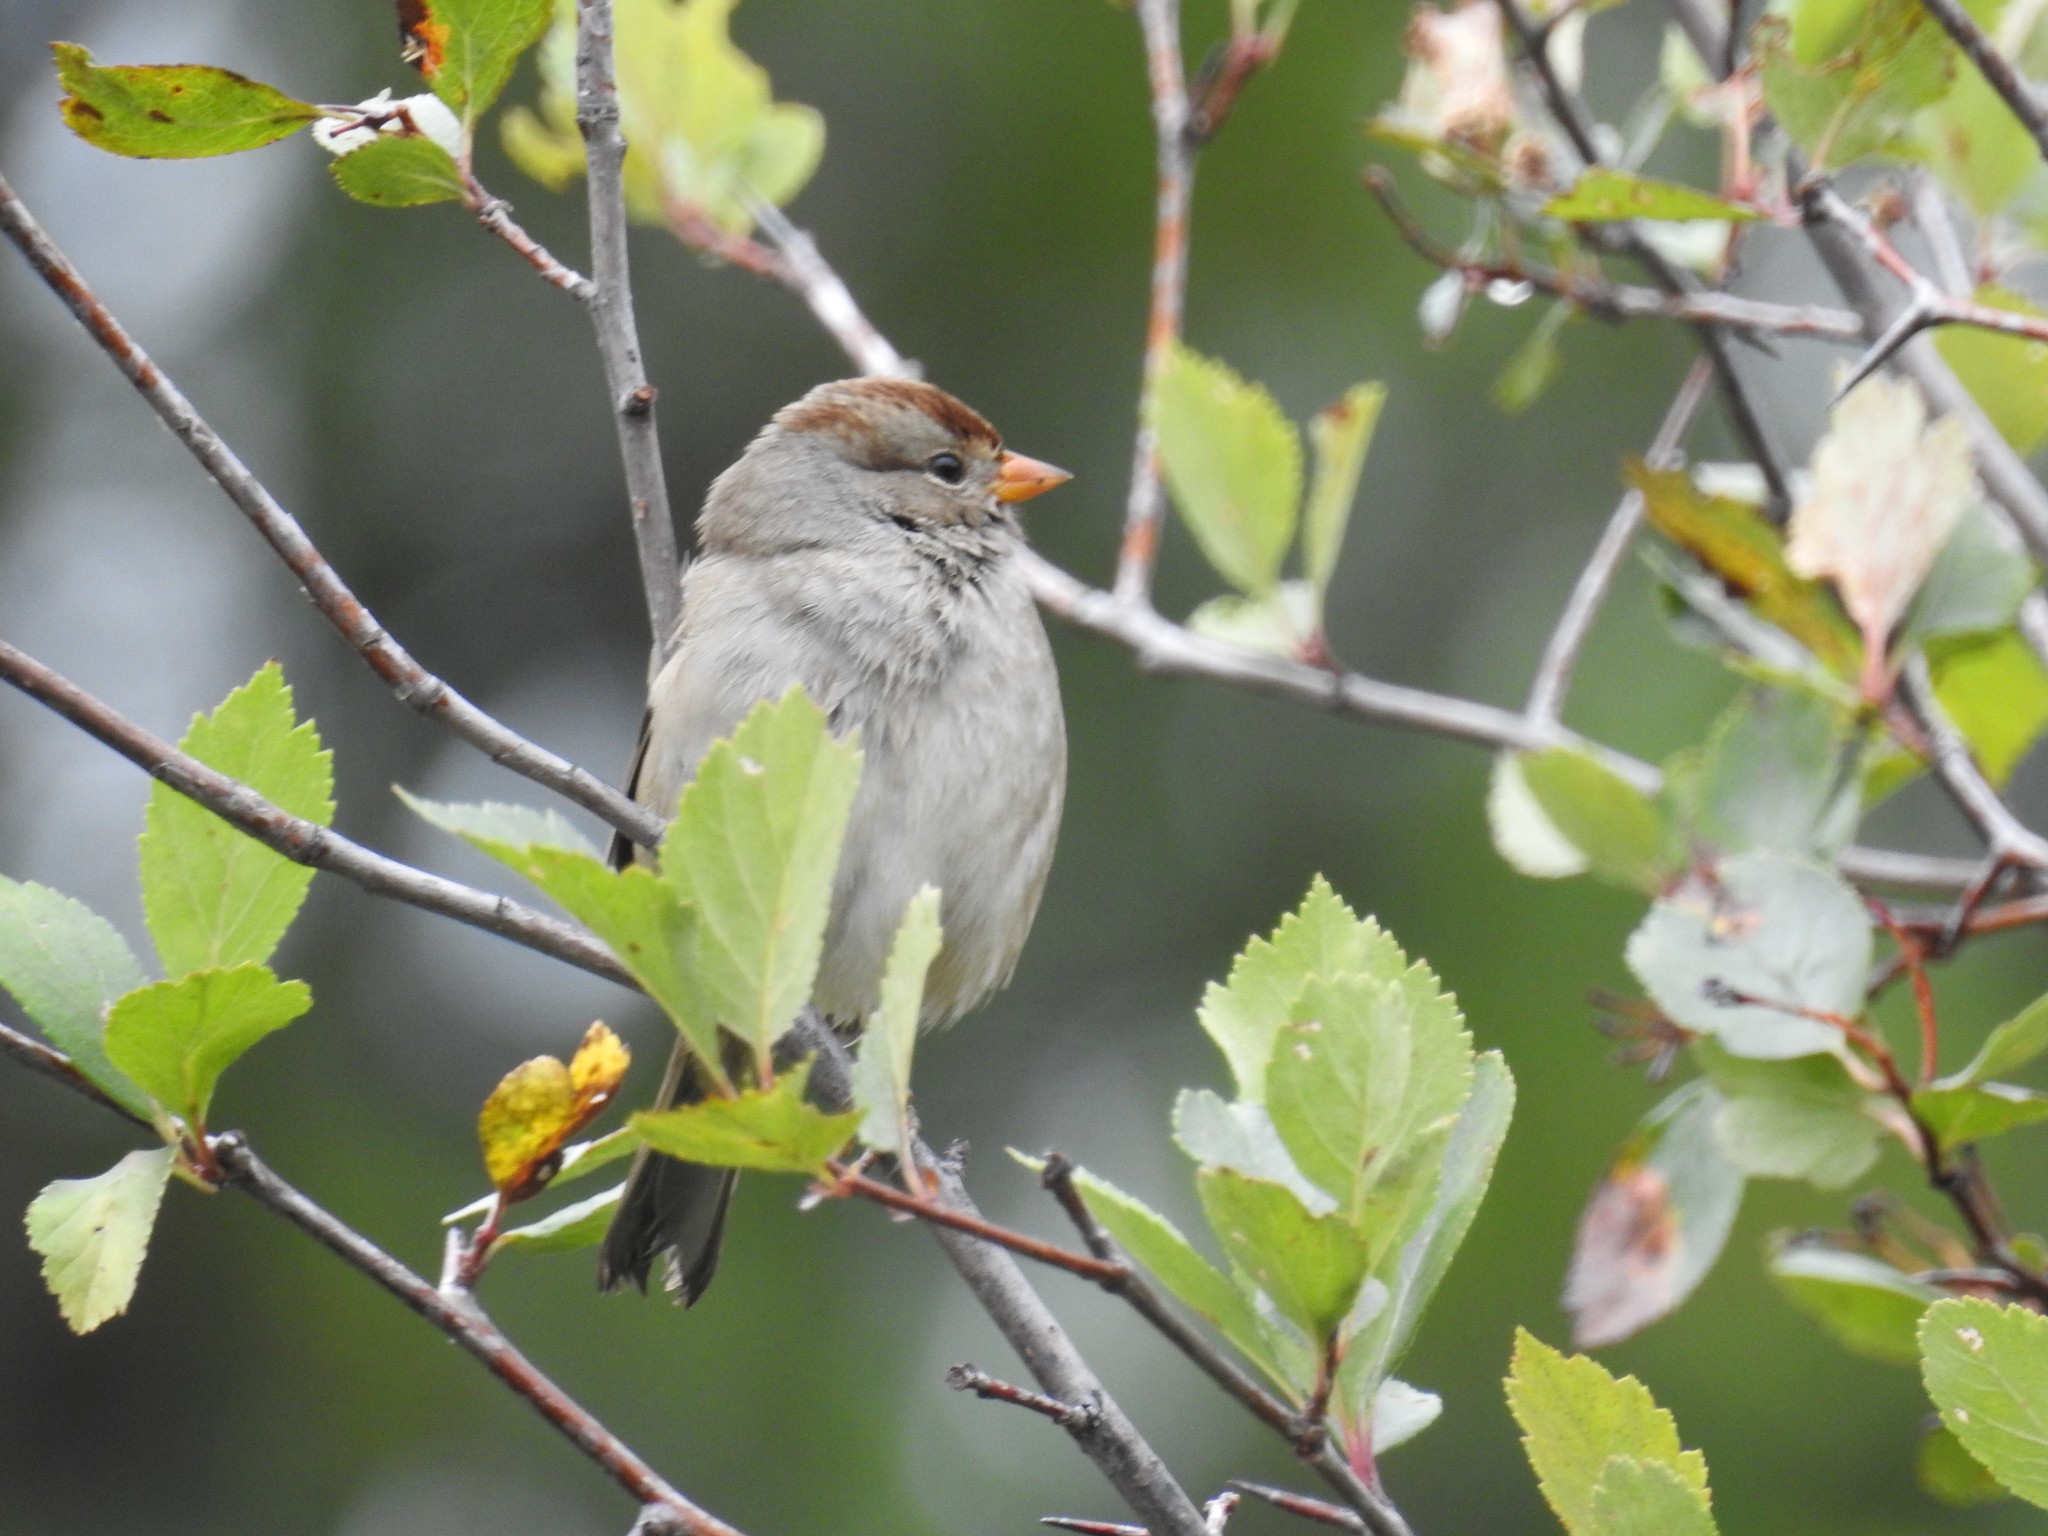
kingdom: Animalia
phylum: Chordata
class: Aves
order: Passeriformes
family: Passerellidae
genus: Zonotrichia
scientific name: Zonotrichia leucophrys
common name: White-crowned sparrow
